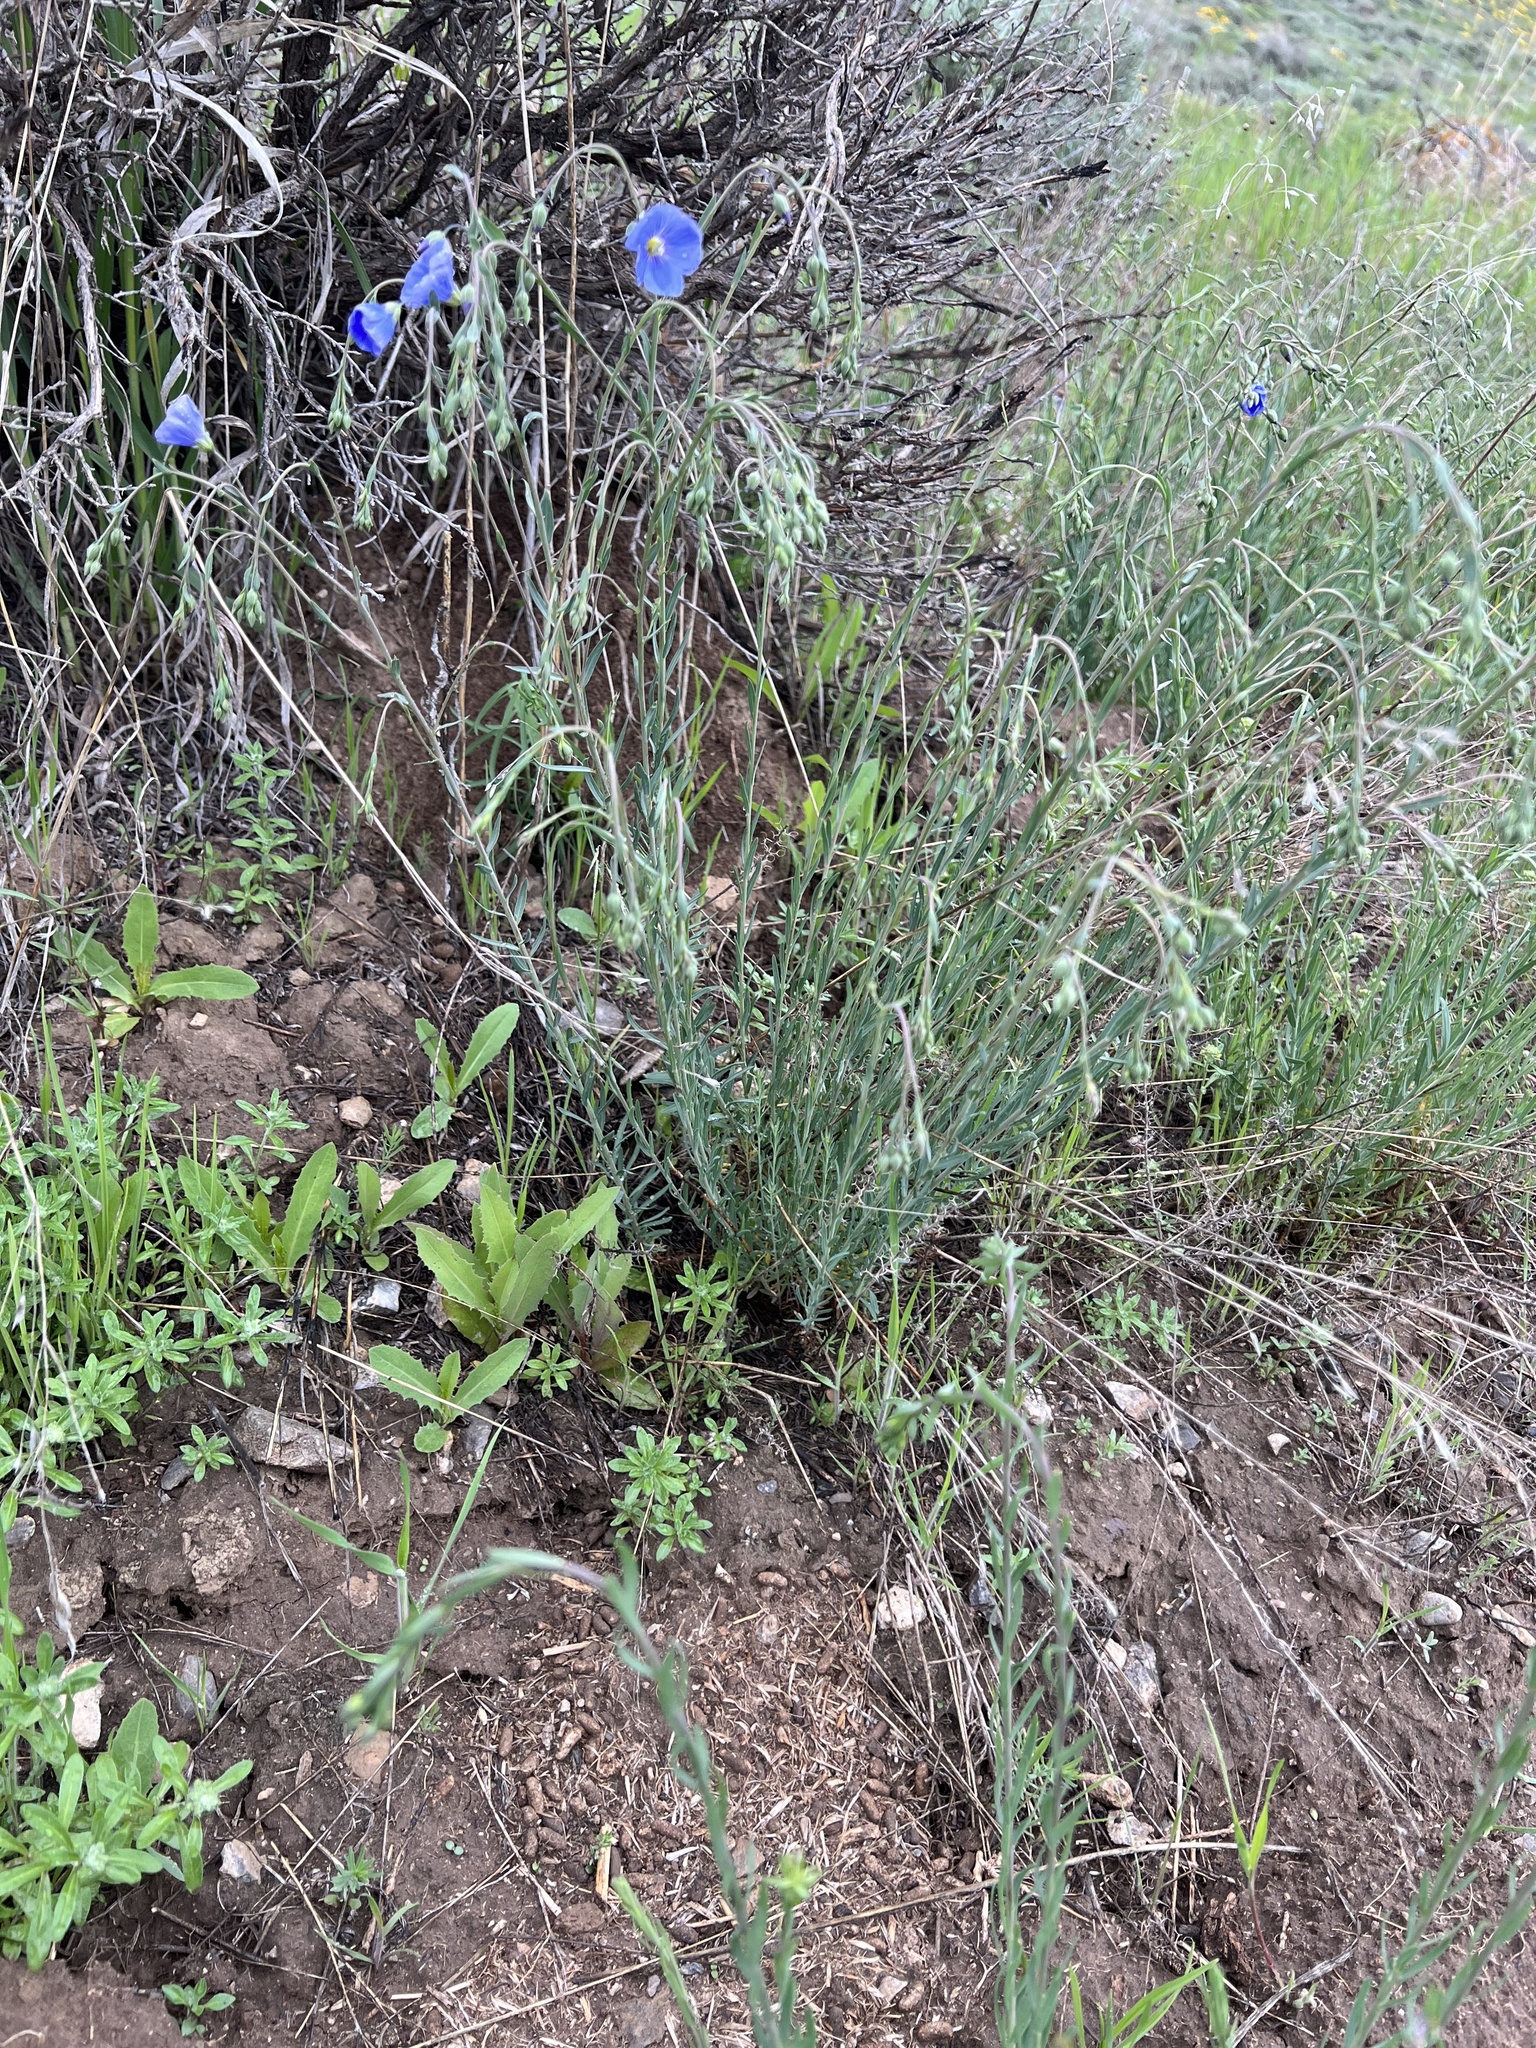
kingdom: Plantae
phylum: Tracheophyta
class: Magnoliopsida
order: Malpighiales
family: Linaceae
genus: Linum
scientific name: Linum lewisii
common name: Prairie flax
